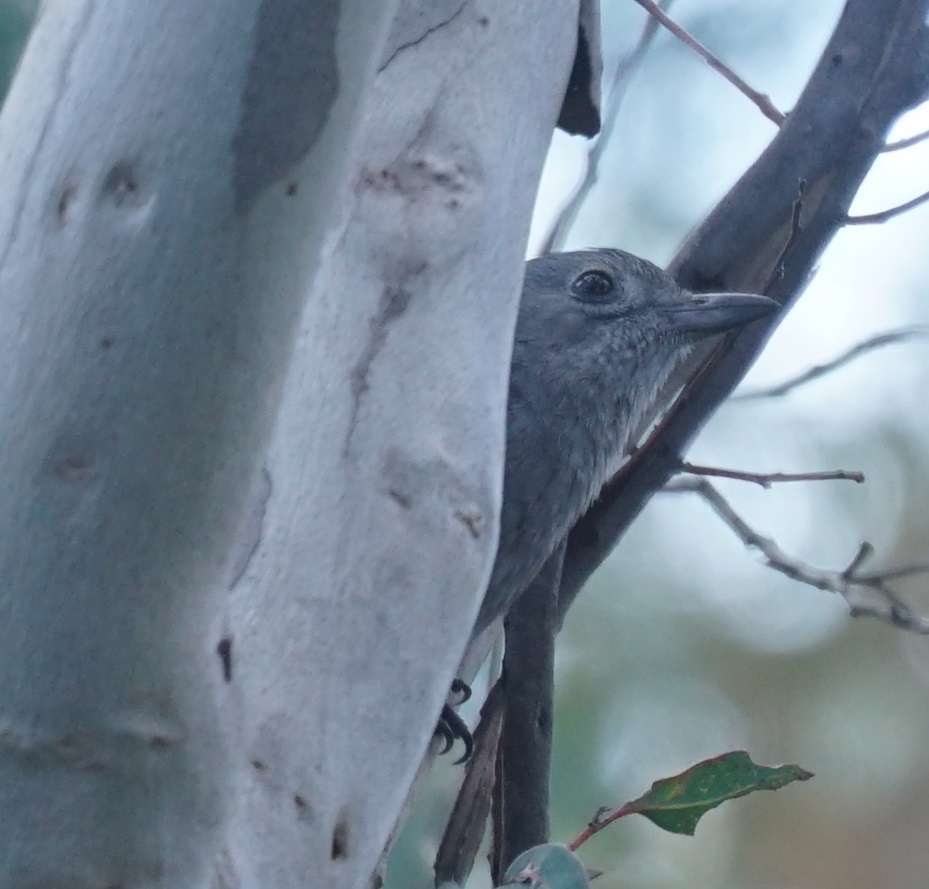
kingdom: Animalia
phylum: Chordata
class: Aves
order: Passeriformes
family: Pachycephalidae
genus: Colluricincla
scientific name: Colluricincla harmonica
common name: Grey shrikethrush
